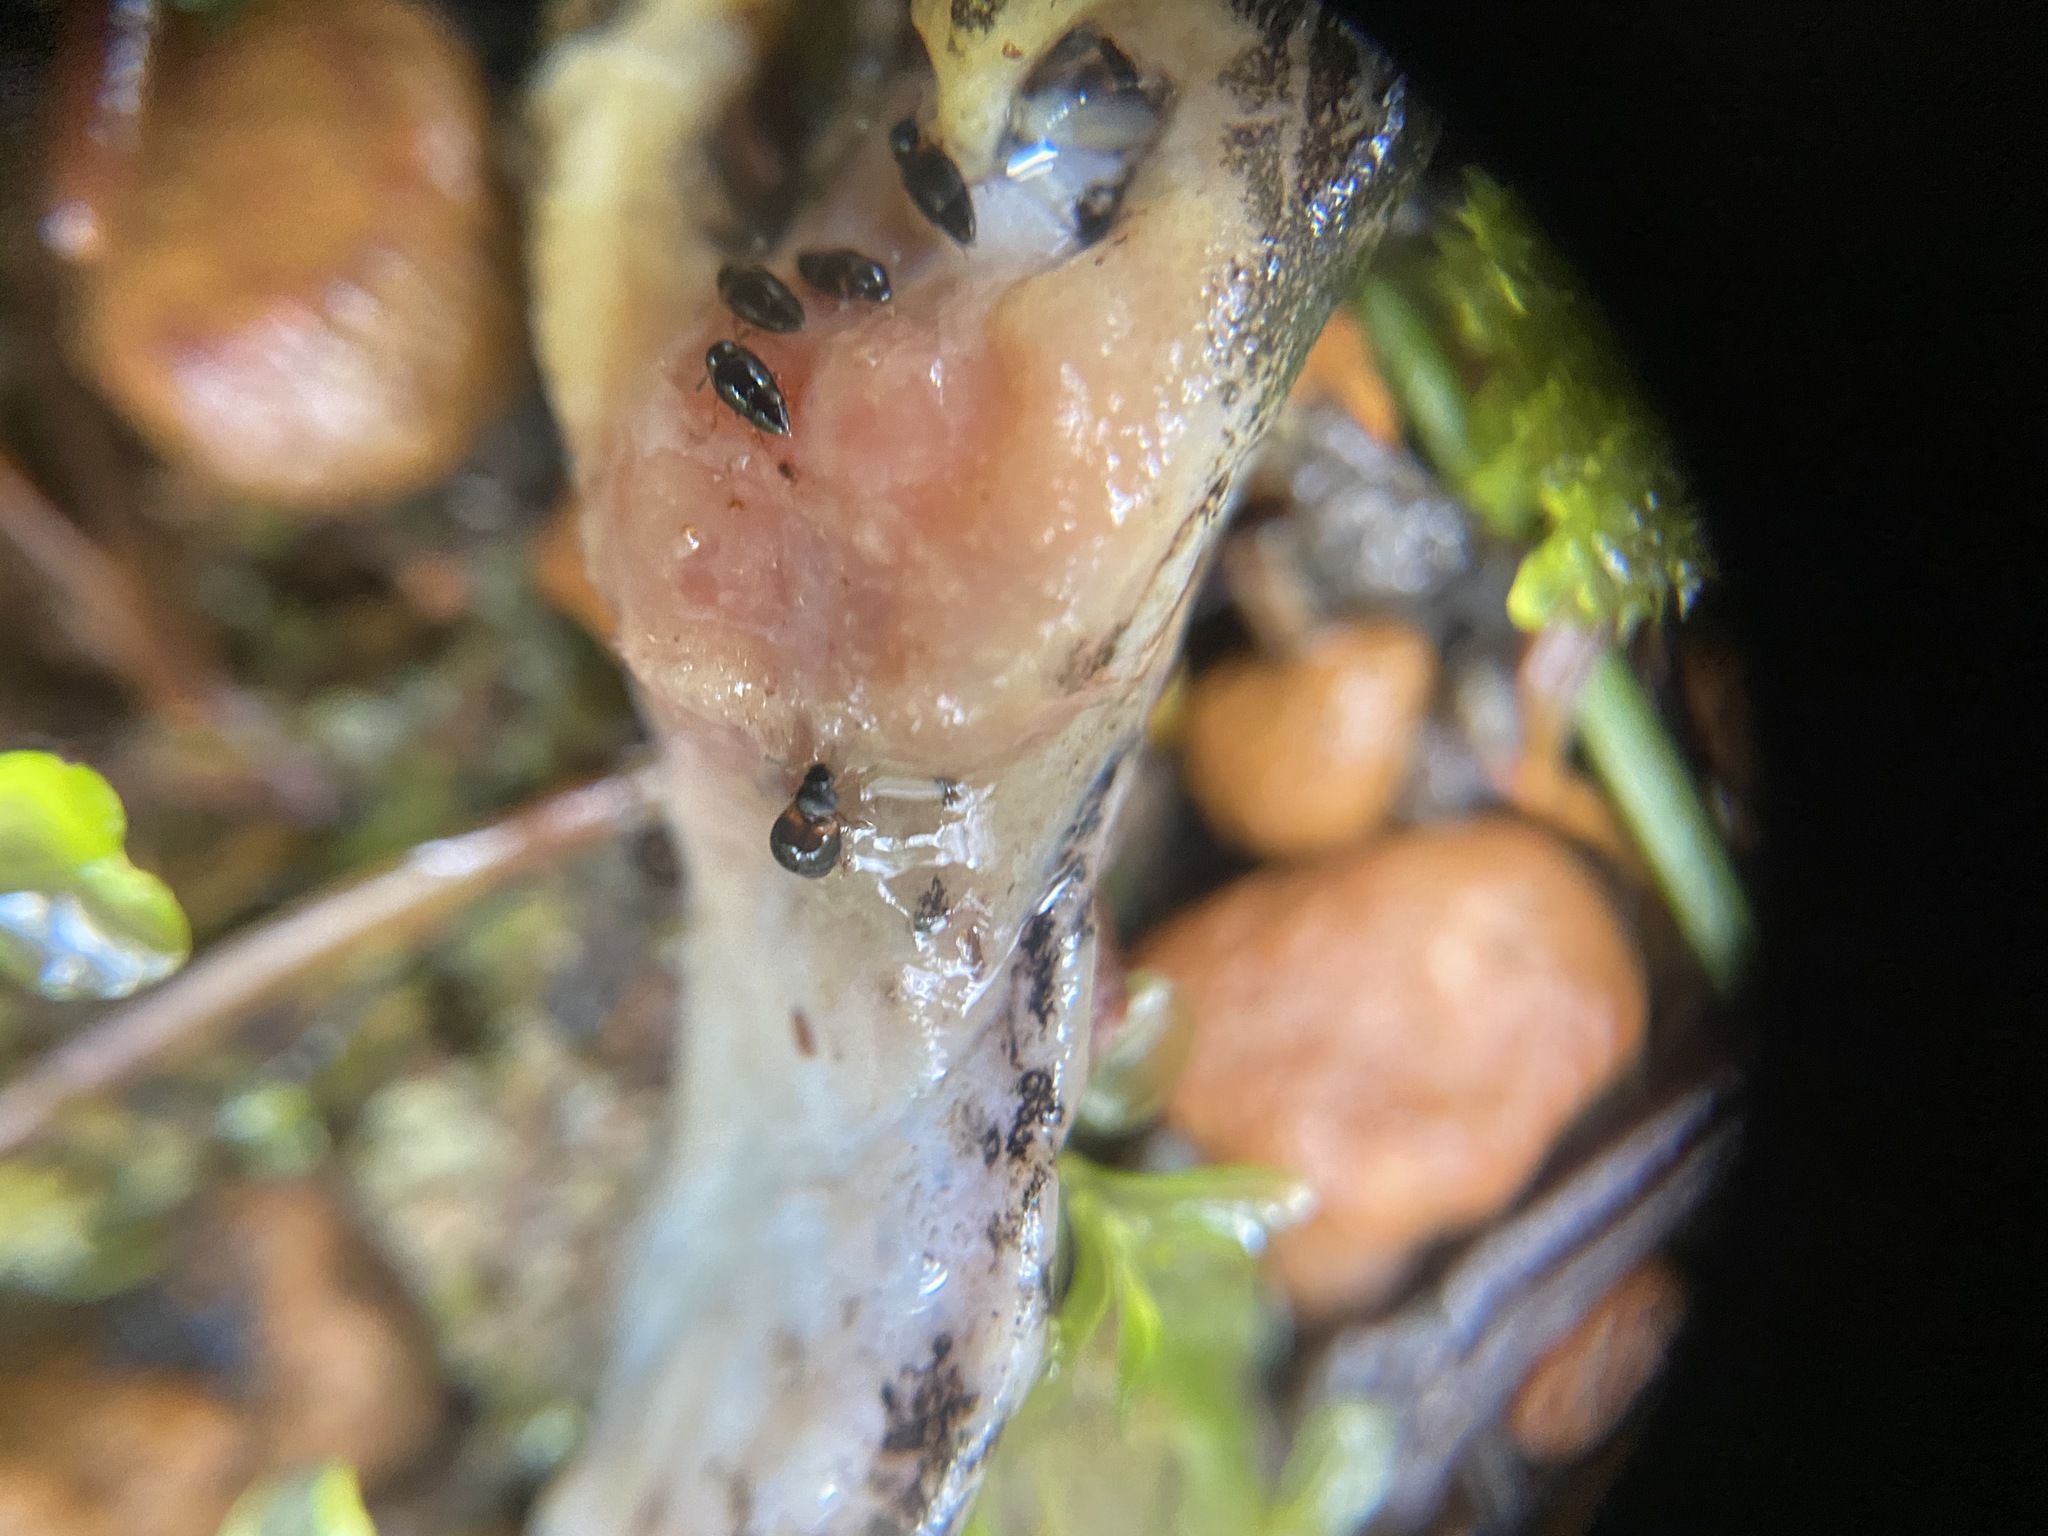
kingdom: Animalia
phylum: Arthropoda
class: Insecta
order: Coleoptera
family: Staphylinidae
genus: Proteinus
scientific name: Proteinus basalis
